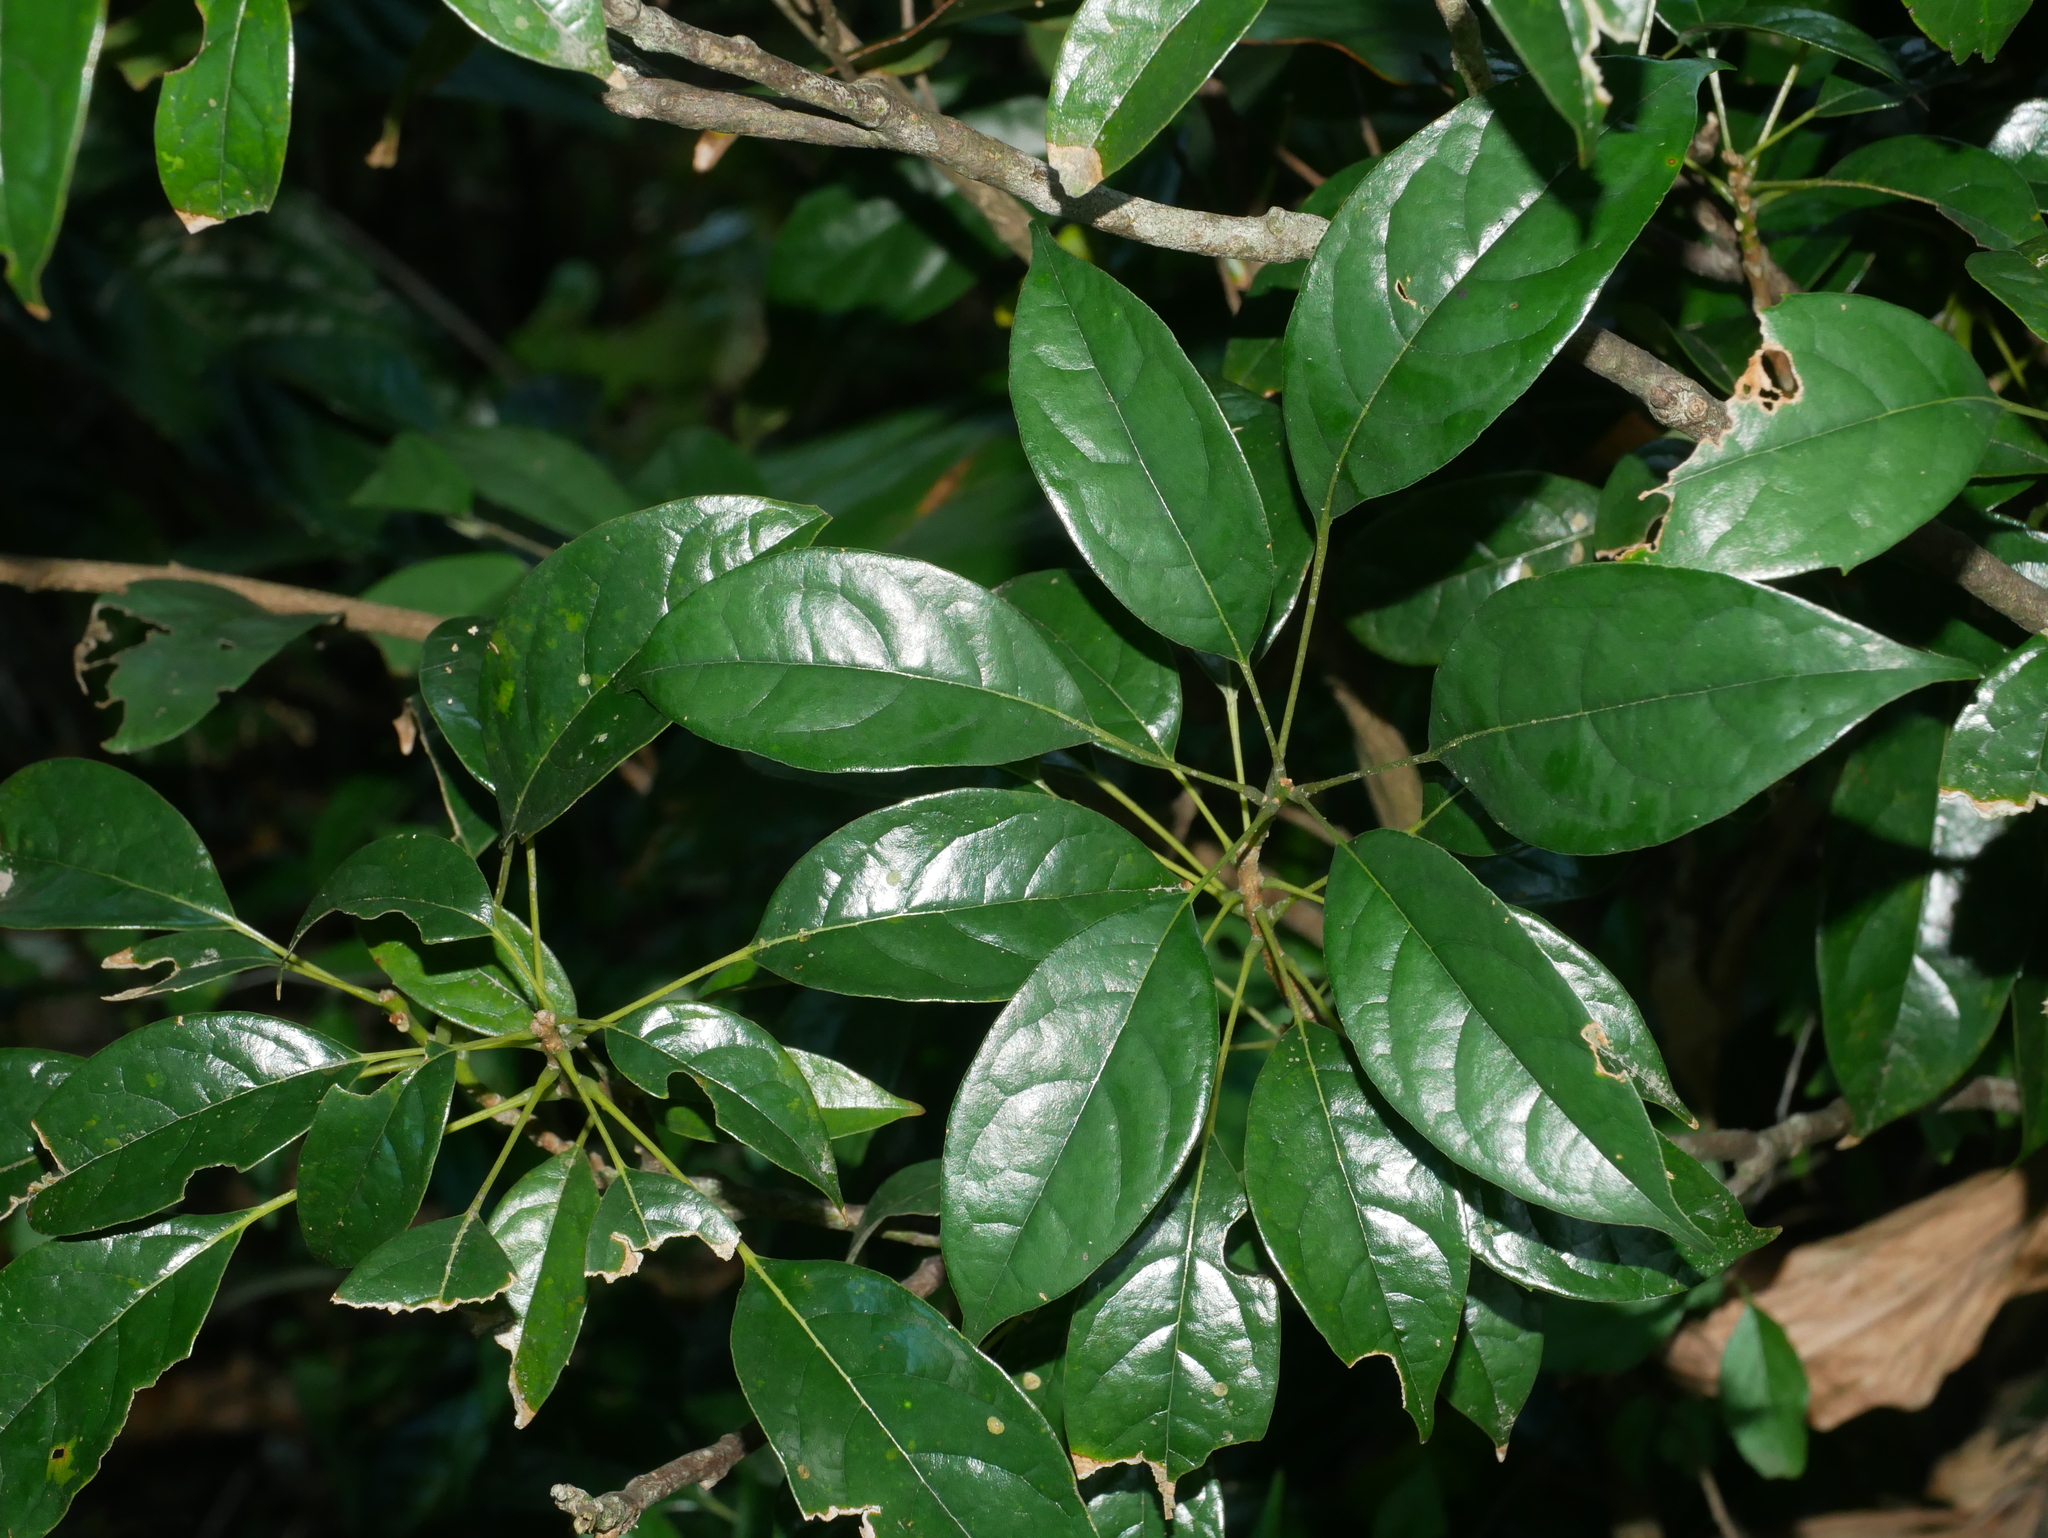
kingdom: Plantae
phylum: Tracheophyta
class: Magnoliopsida
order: Proteales
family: Sabiaceae
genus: Meliosma
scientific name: Meliosma squamulata
